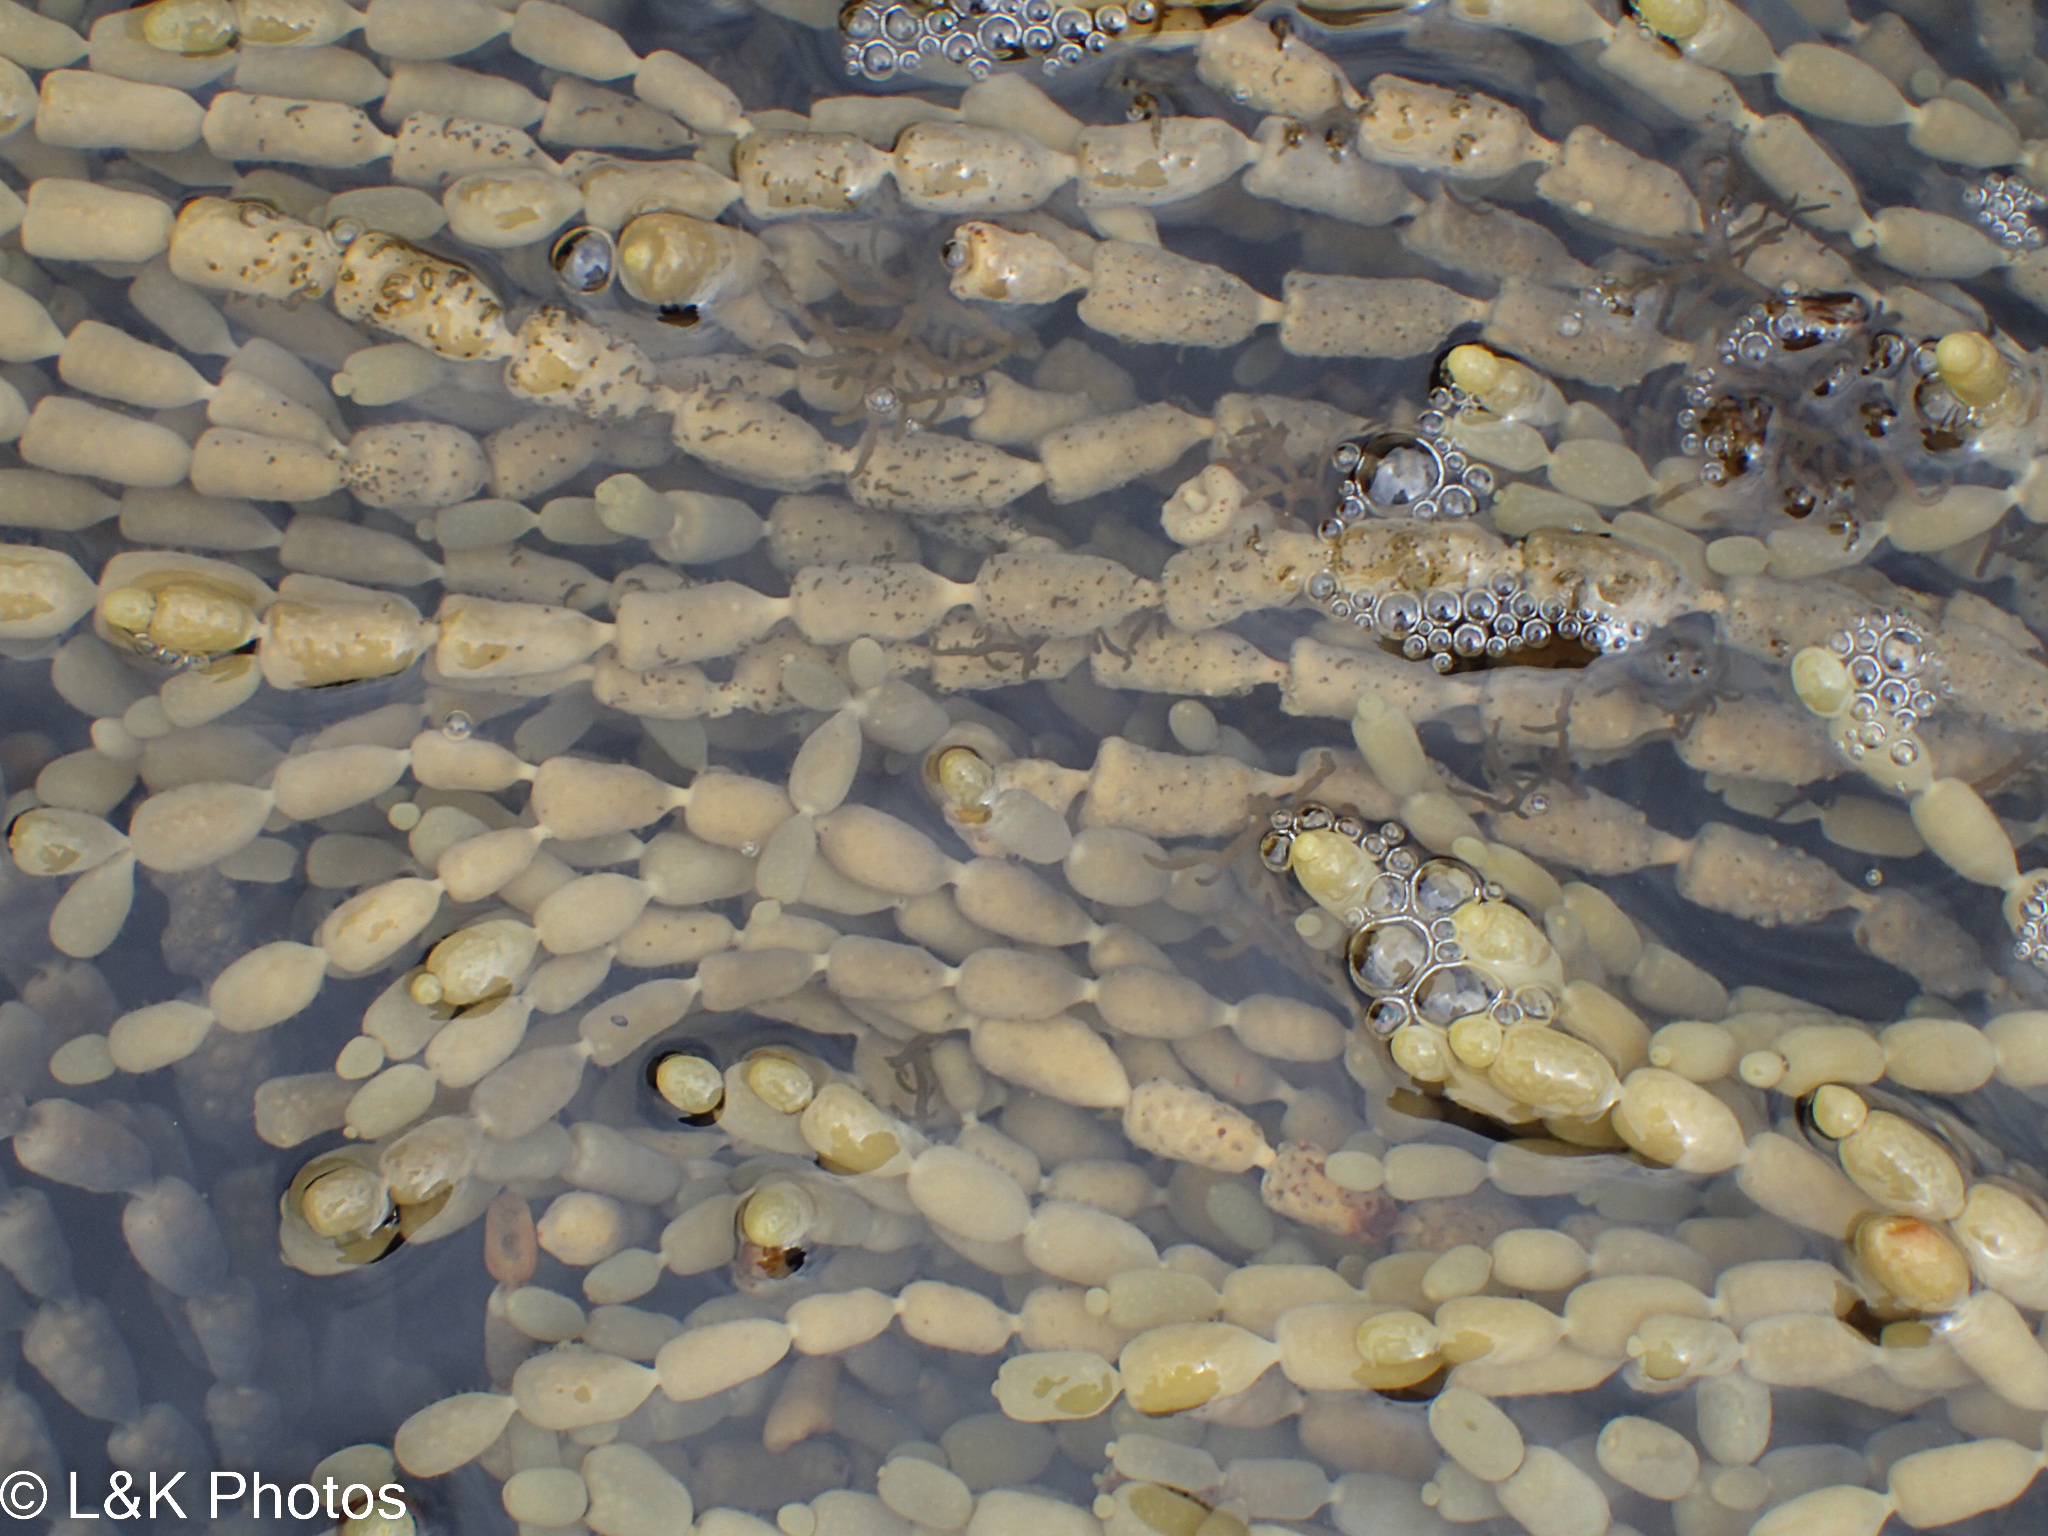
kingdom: Chromista
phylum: Ochrophyta
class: Phaeophyceae
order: Fucales
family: Hormosiraceae
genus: Hormosira
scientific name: Hormosira banksii
